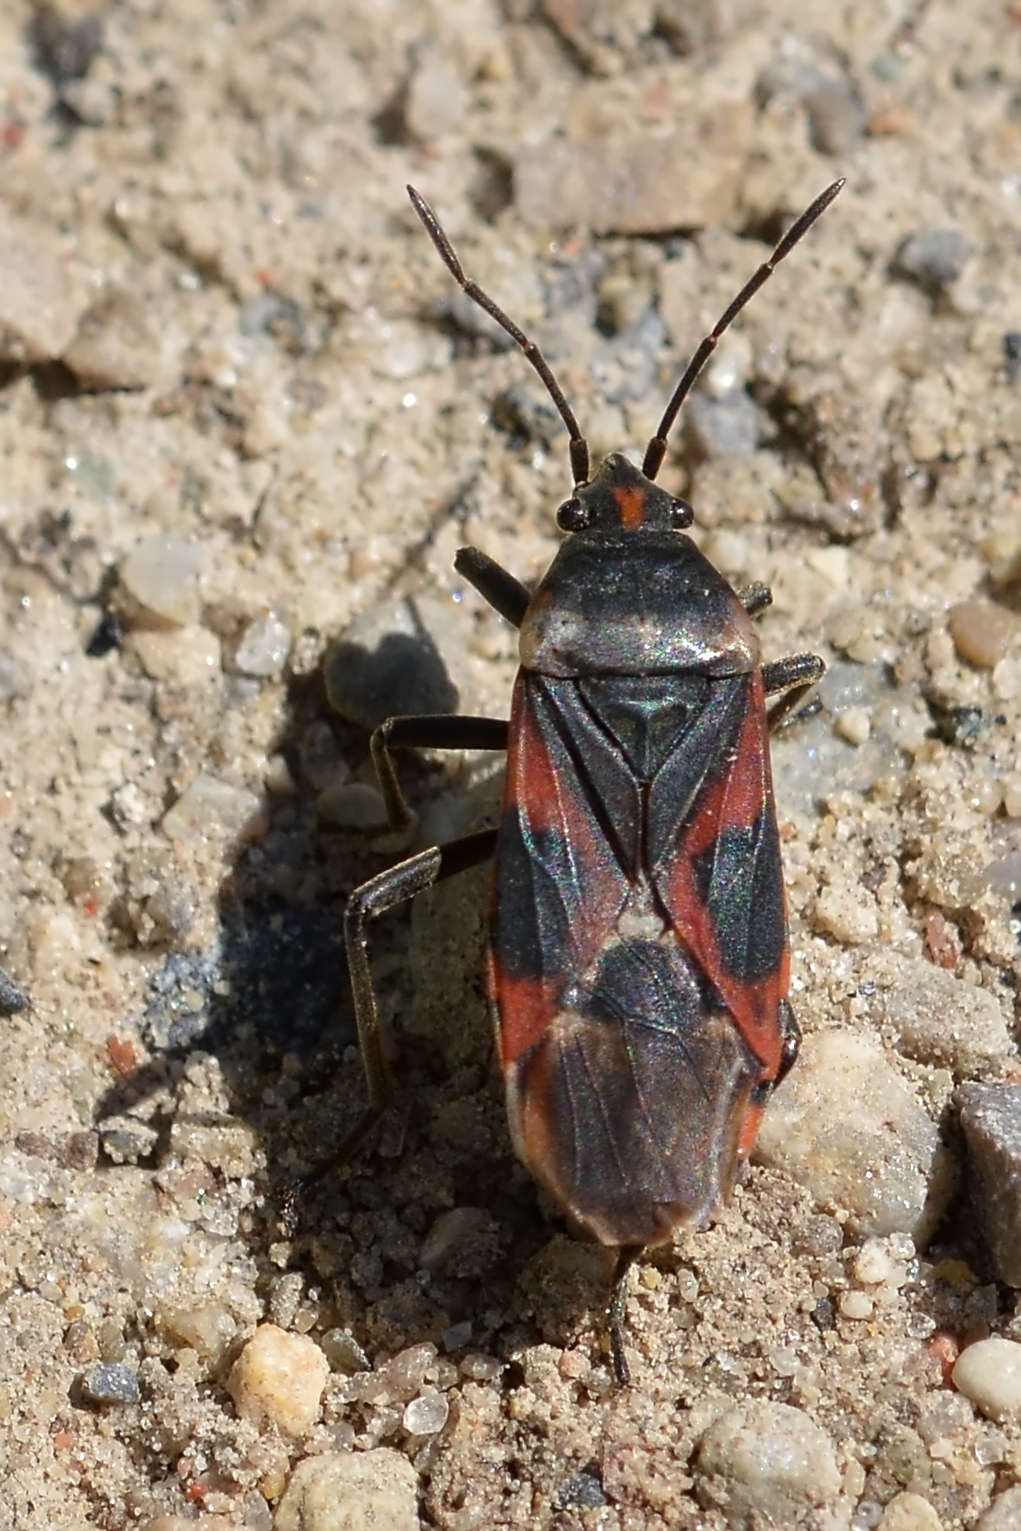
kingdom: Animalia
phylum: Arthropoda
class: Insecta
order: Hemiptera
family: Lygaeidae
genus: Lygaeus
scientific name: Lygaeus kalmii
